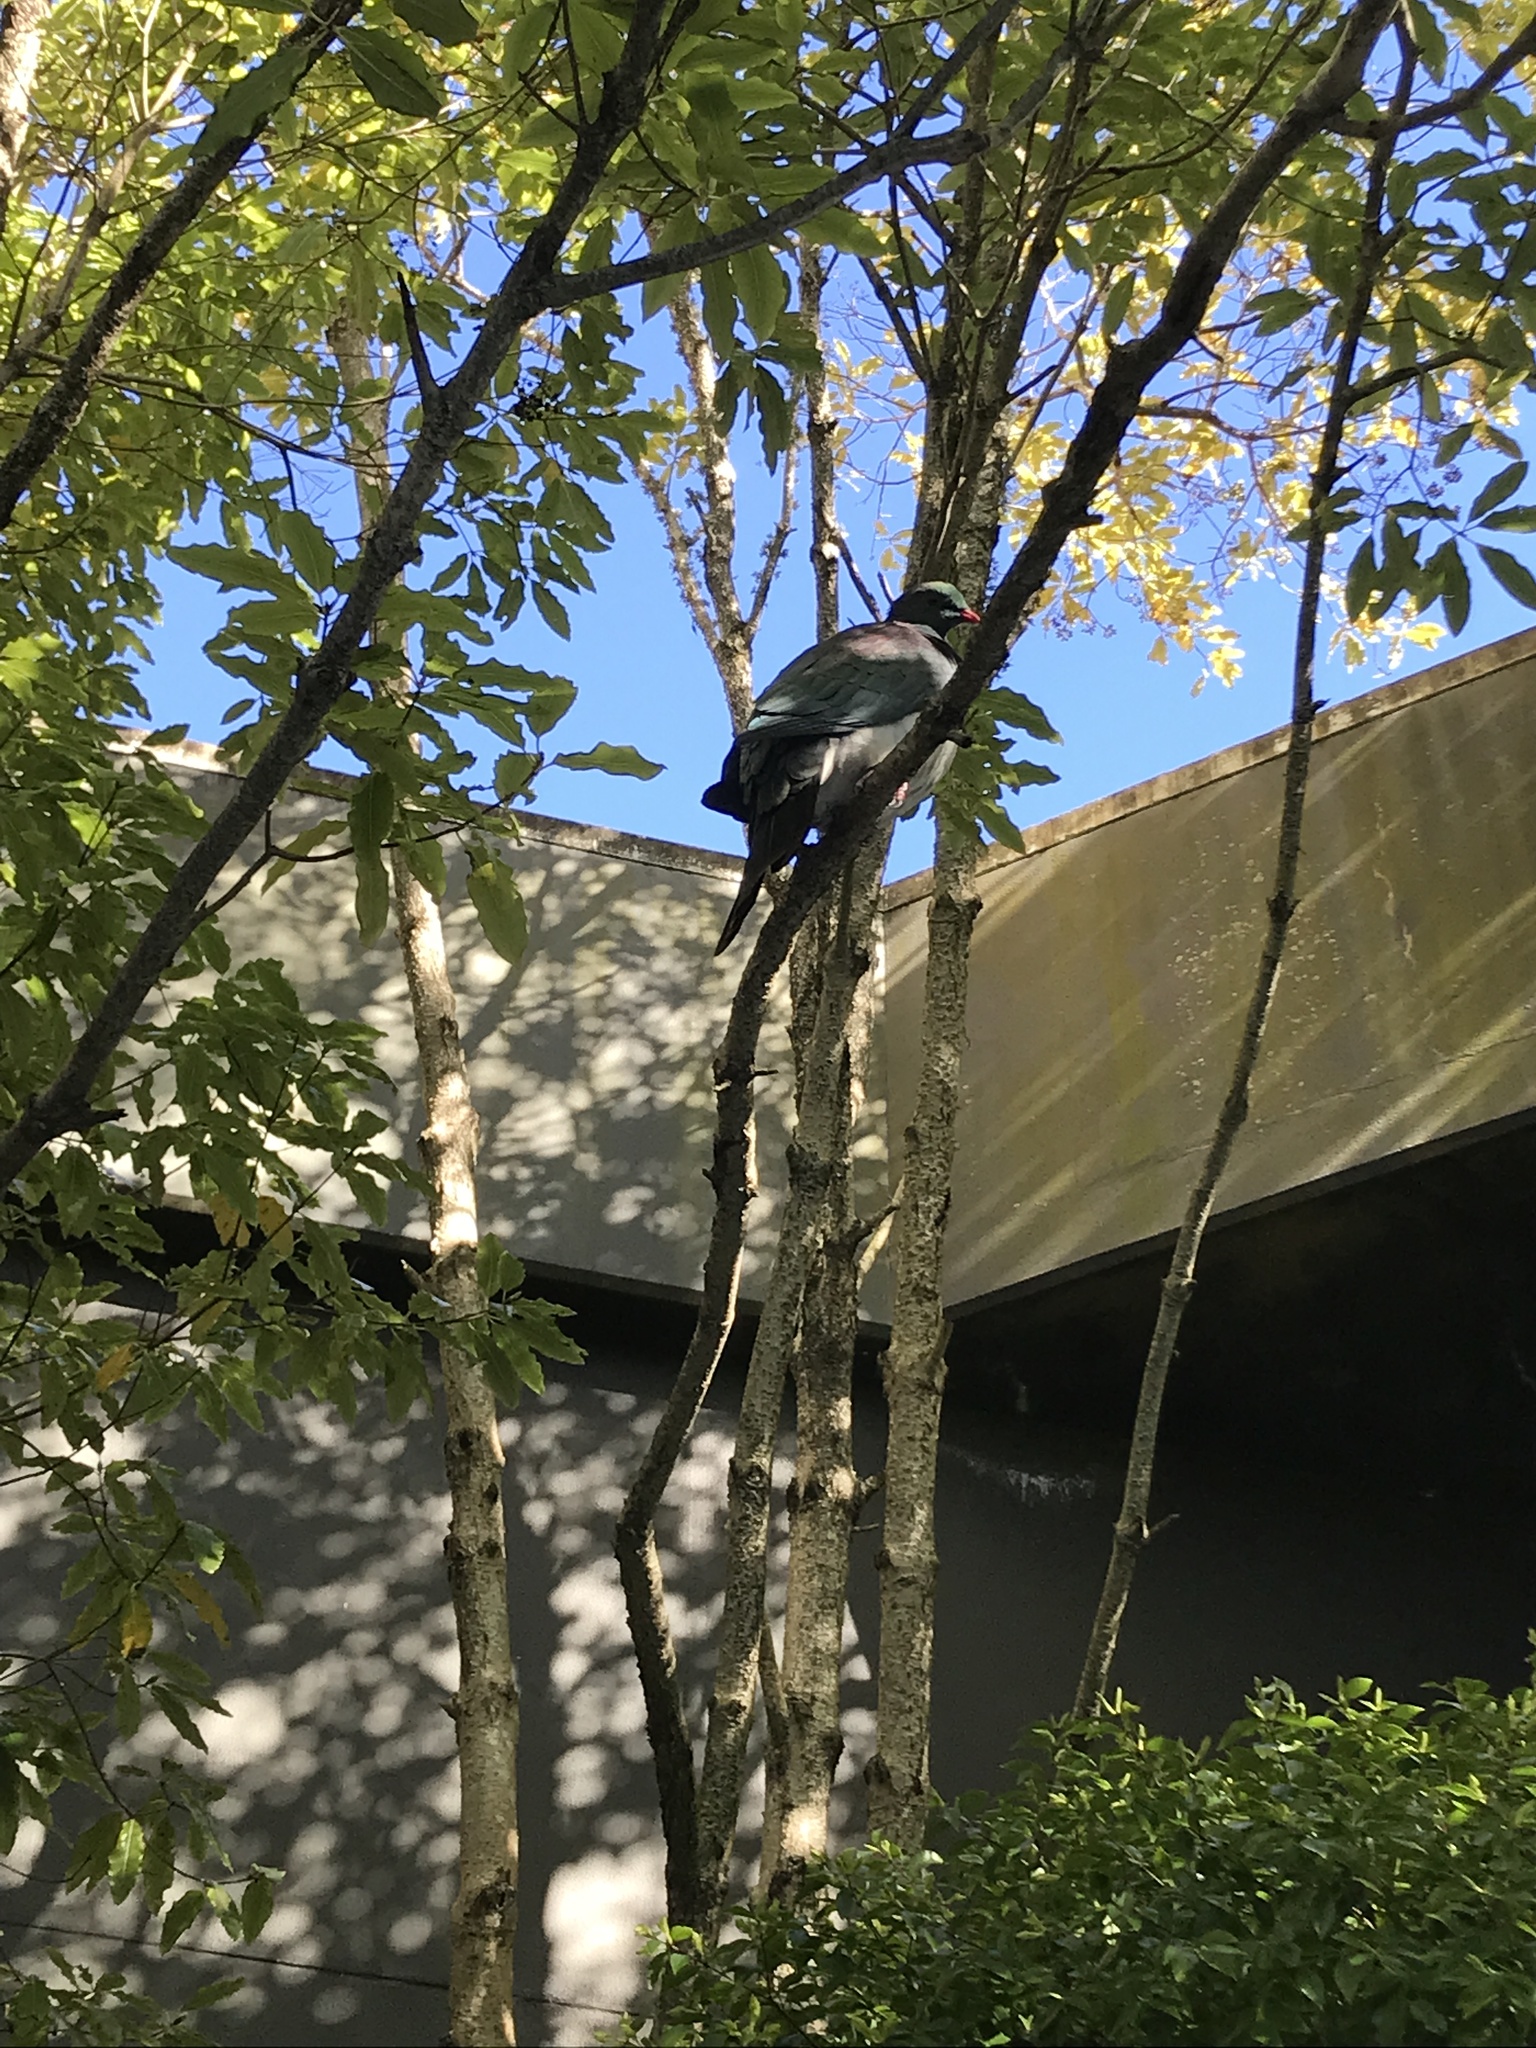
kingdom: Animalia
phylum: Chordata
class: Aves
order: Columbiformes
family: Columbidae
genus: Hemiphaga
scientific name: Hemiphaga novaeseelandiae
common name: New zealand pigeon
